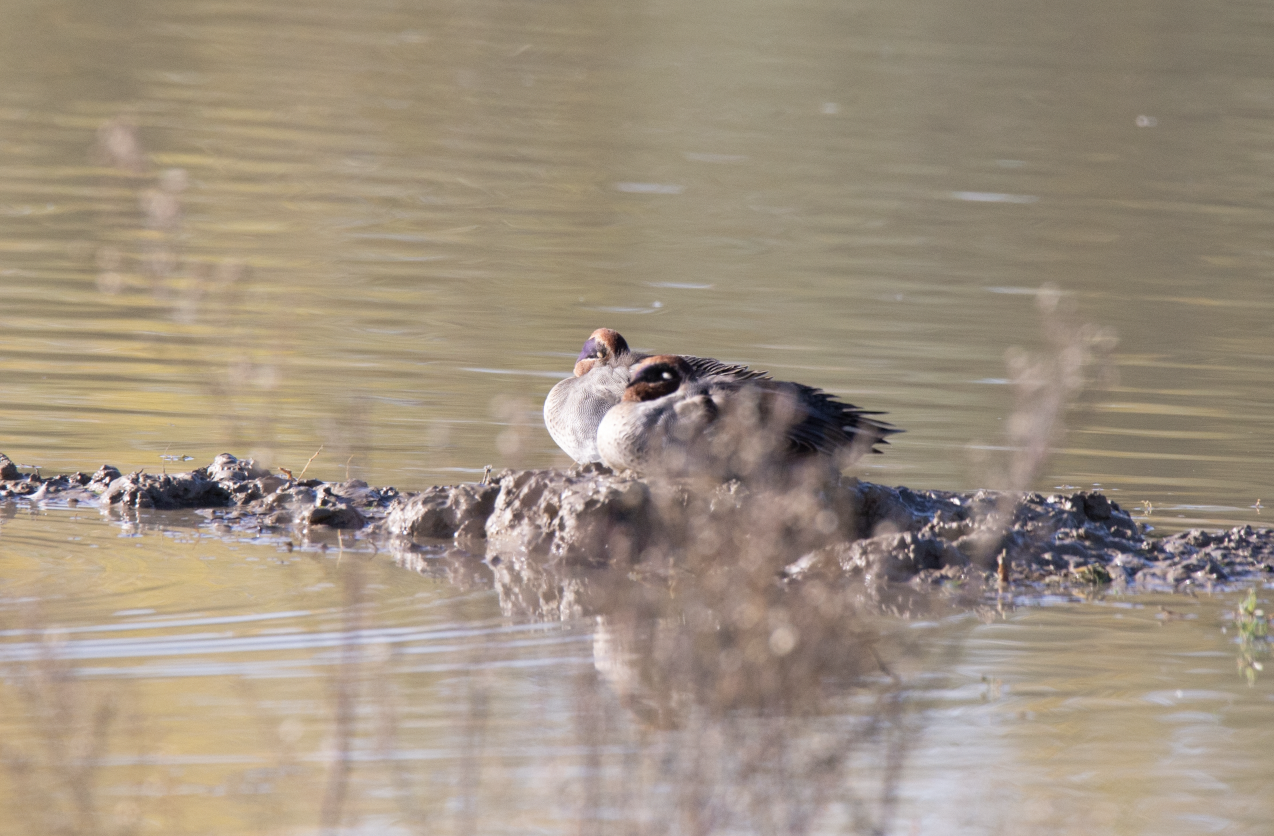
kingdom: Animalia
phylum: Chordata
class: Aves
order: Anseriformes
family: Anatidae
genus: Anas
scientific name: Anas crecca
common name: Eurasian teal
